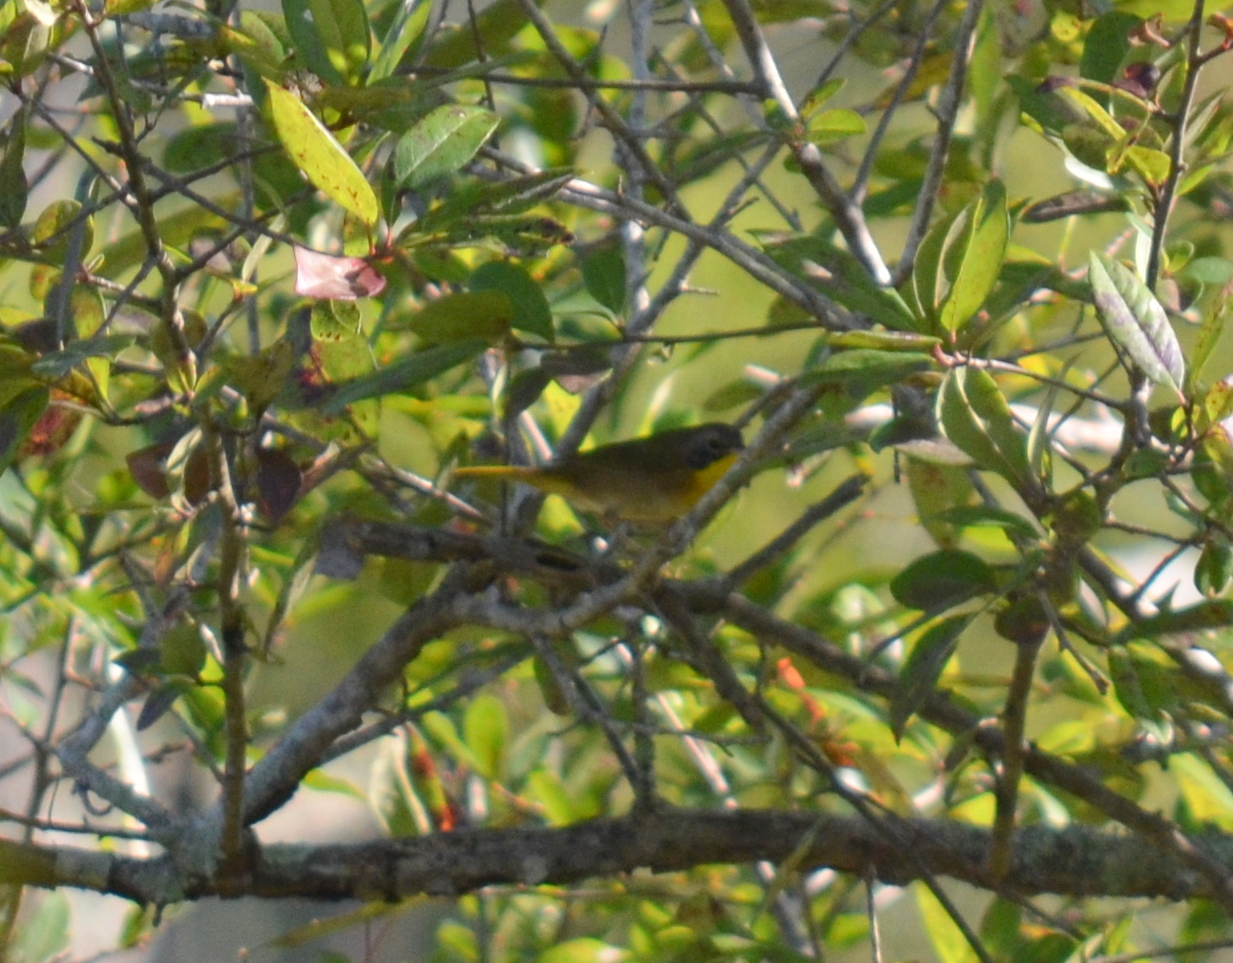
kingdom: Animalia
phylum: Chordata
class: Aves
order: Passeriformes
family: Parulidae
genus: Geothlypis
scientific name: Geothlypis trichas
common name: Common yellowthroat
